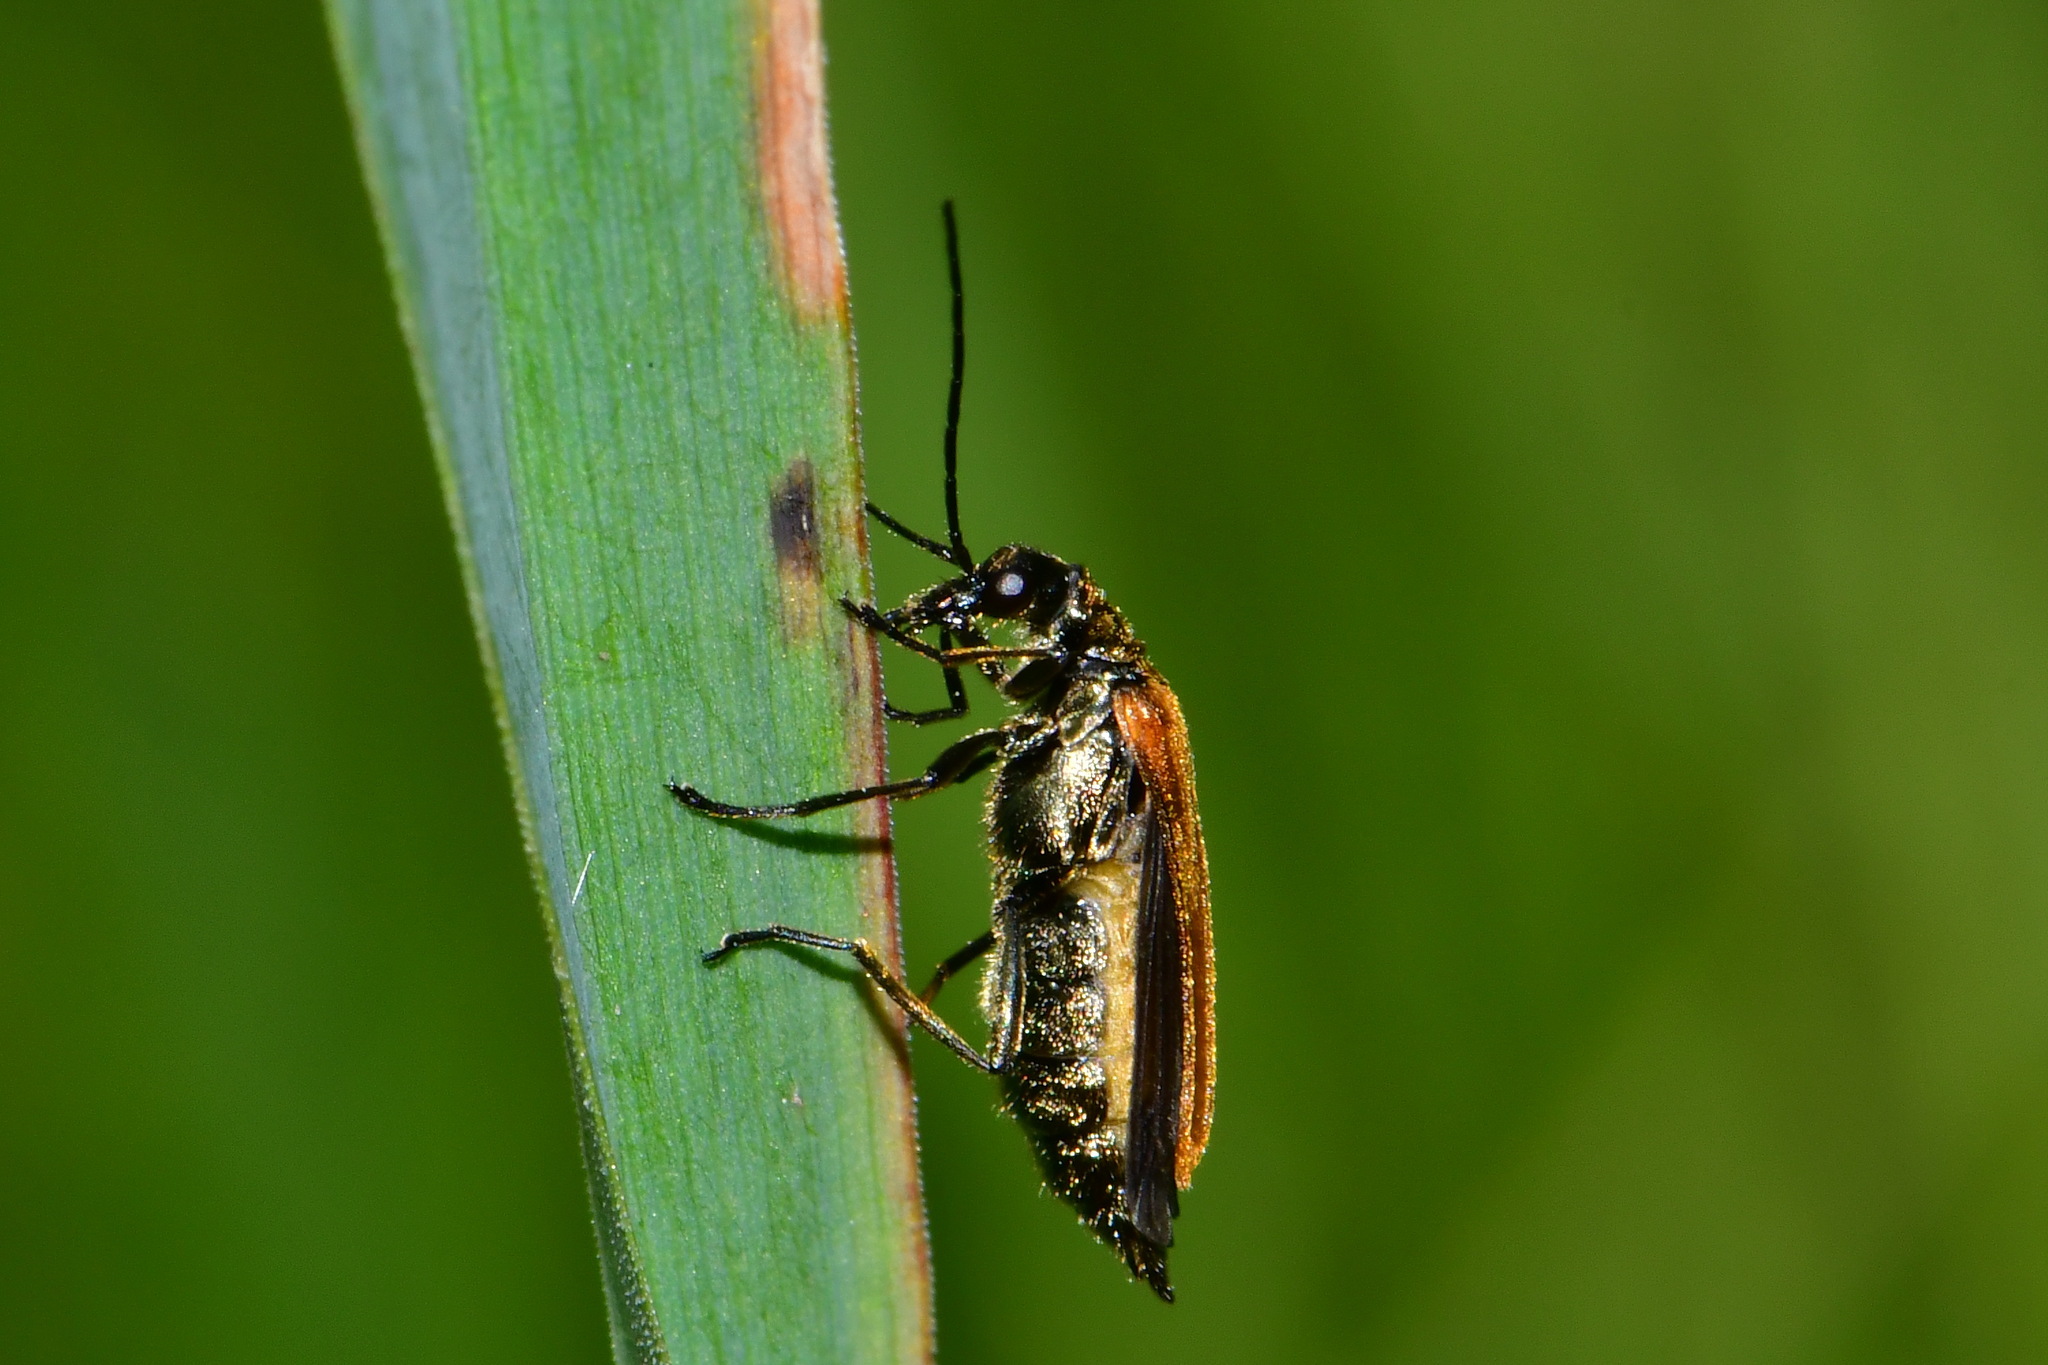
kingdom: Animalia
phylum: Arthropoda
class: Insecta
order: Coleoptera
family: Oedemeridae
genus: Oedemera
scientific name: Oedemera femorata
